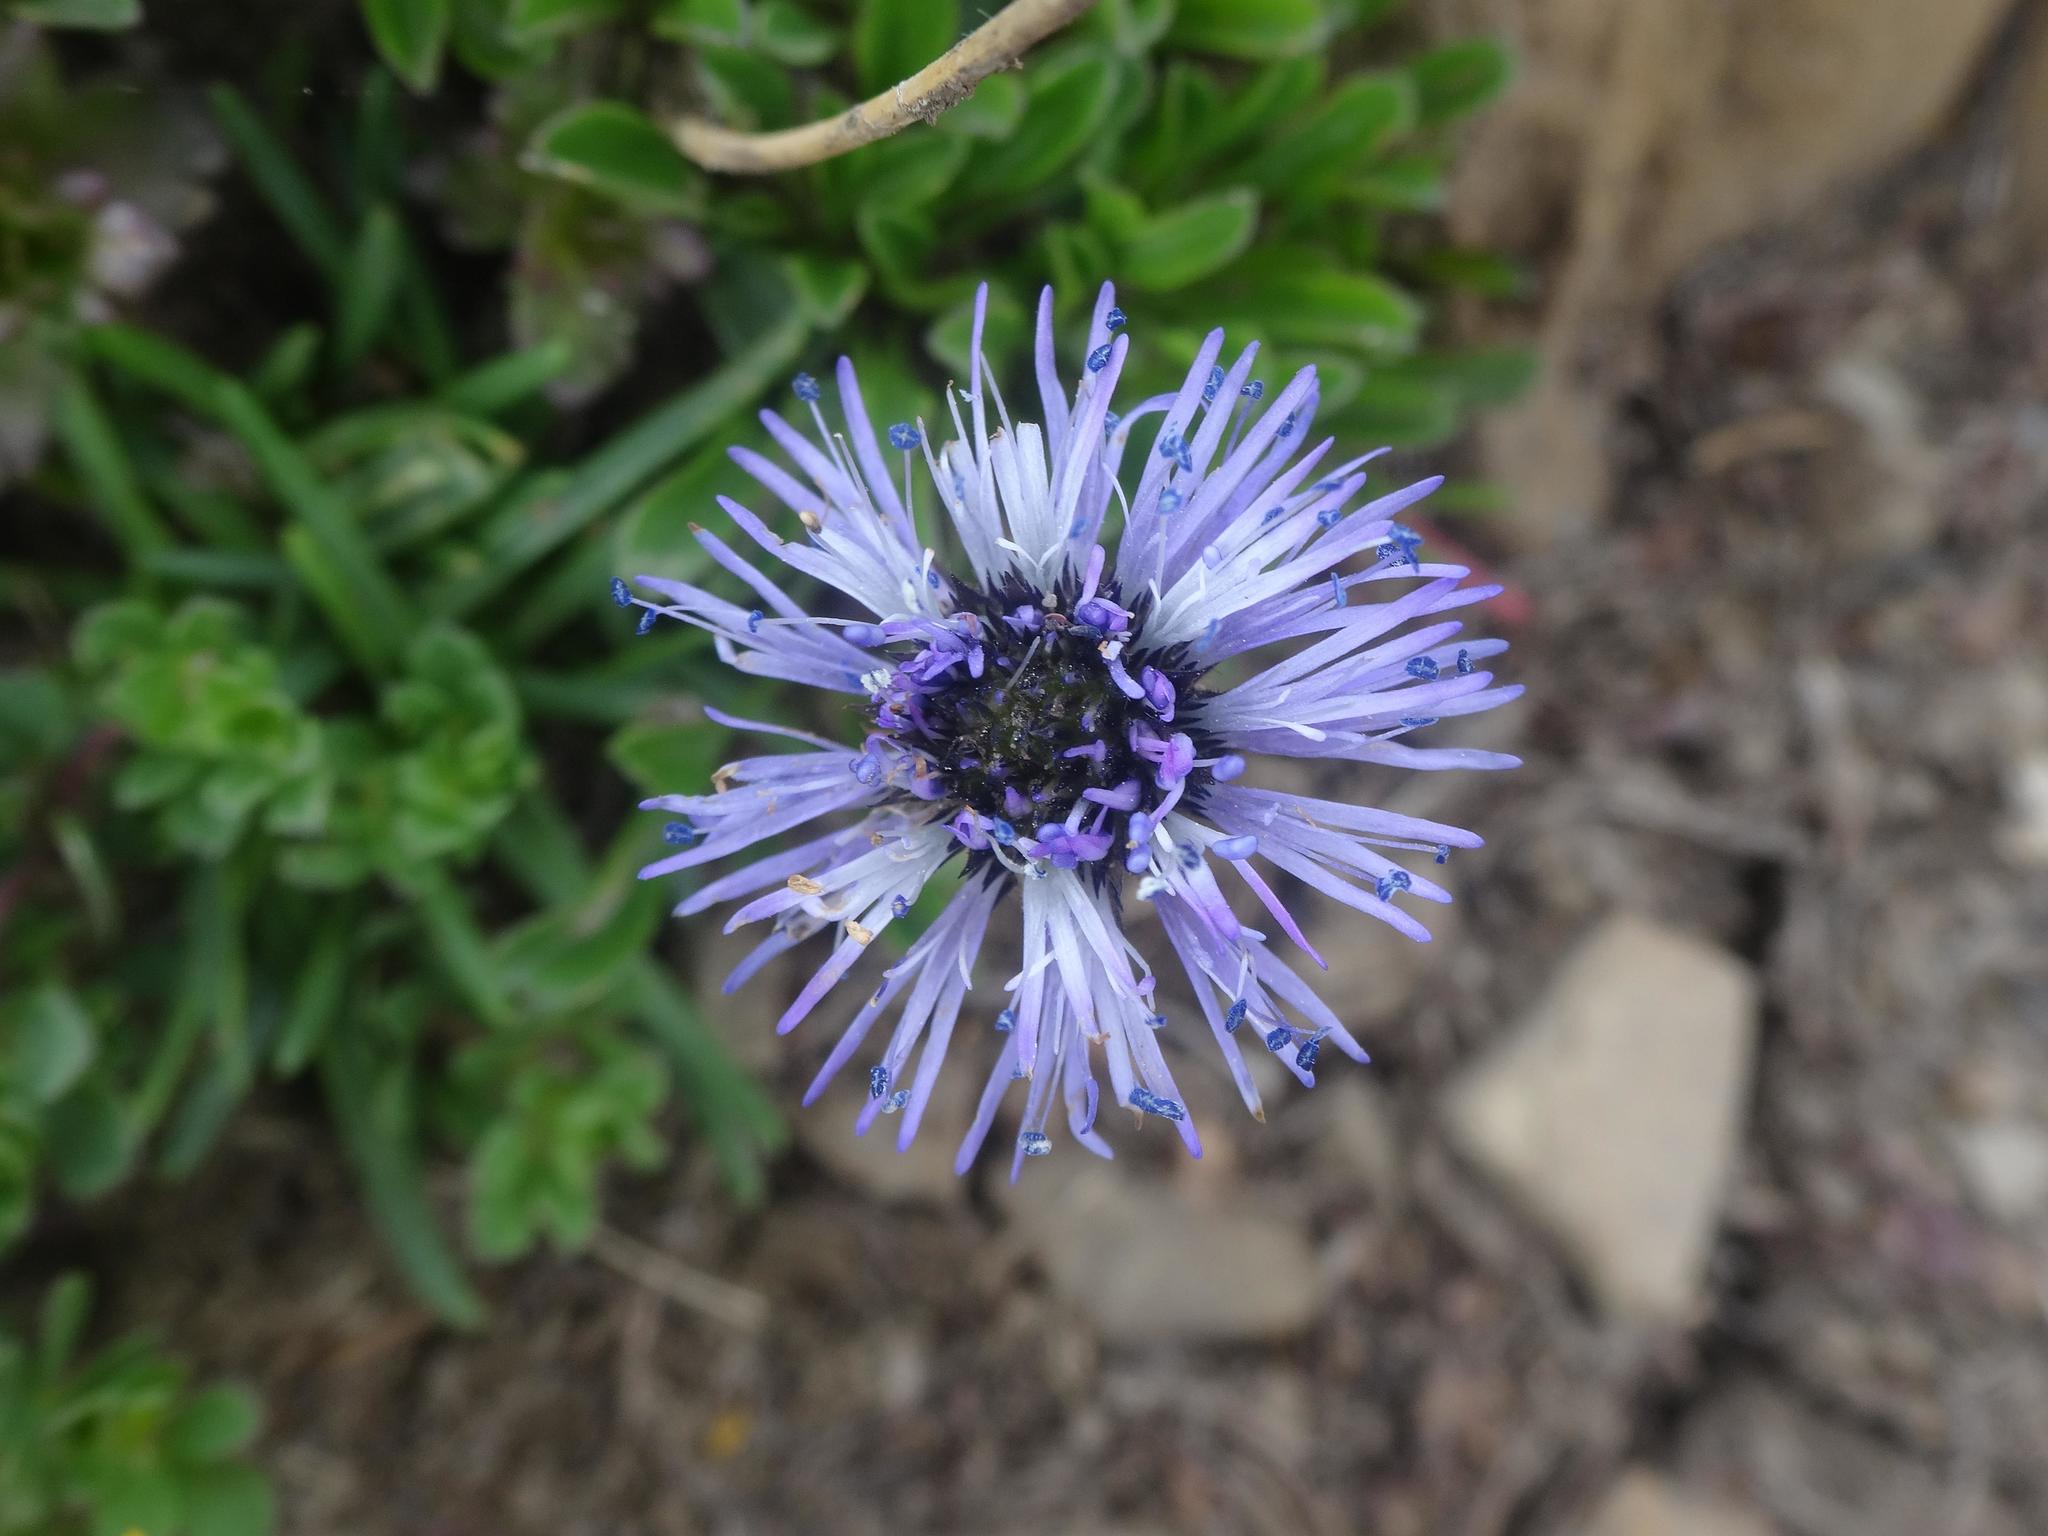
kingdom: Plantae
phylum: Tracheophyta
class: Magnoliopsida
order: Lamiales
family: Plantaginaceae
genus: Globularia
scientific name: Globularia cordifolia
